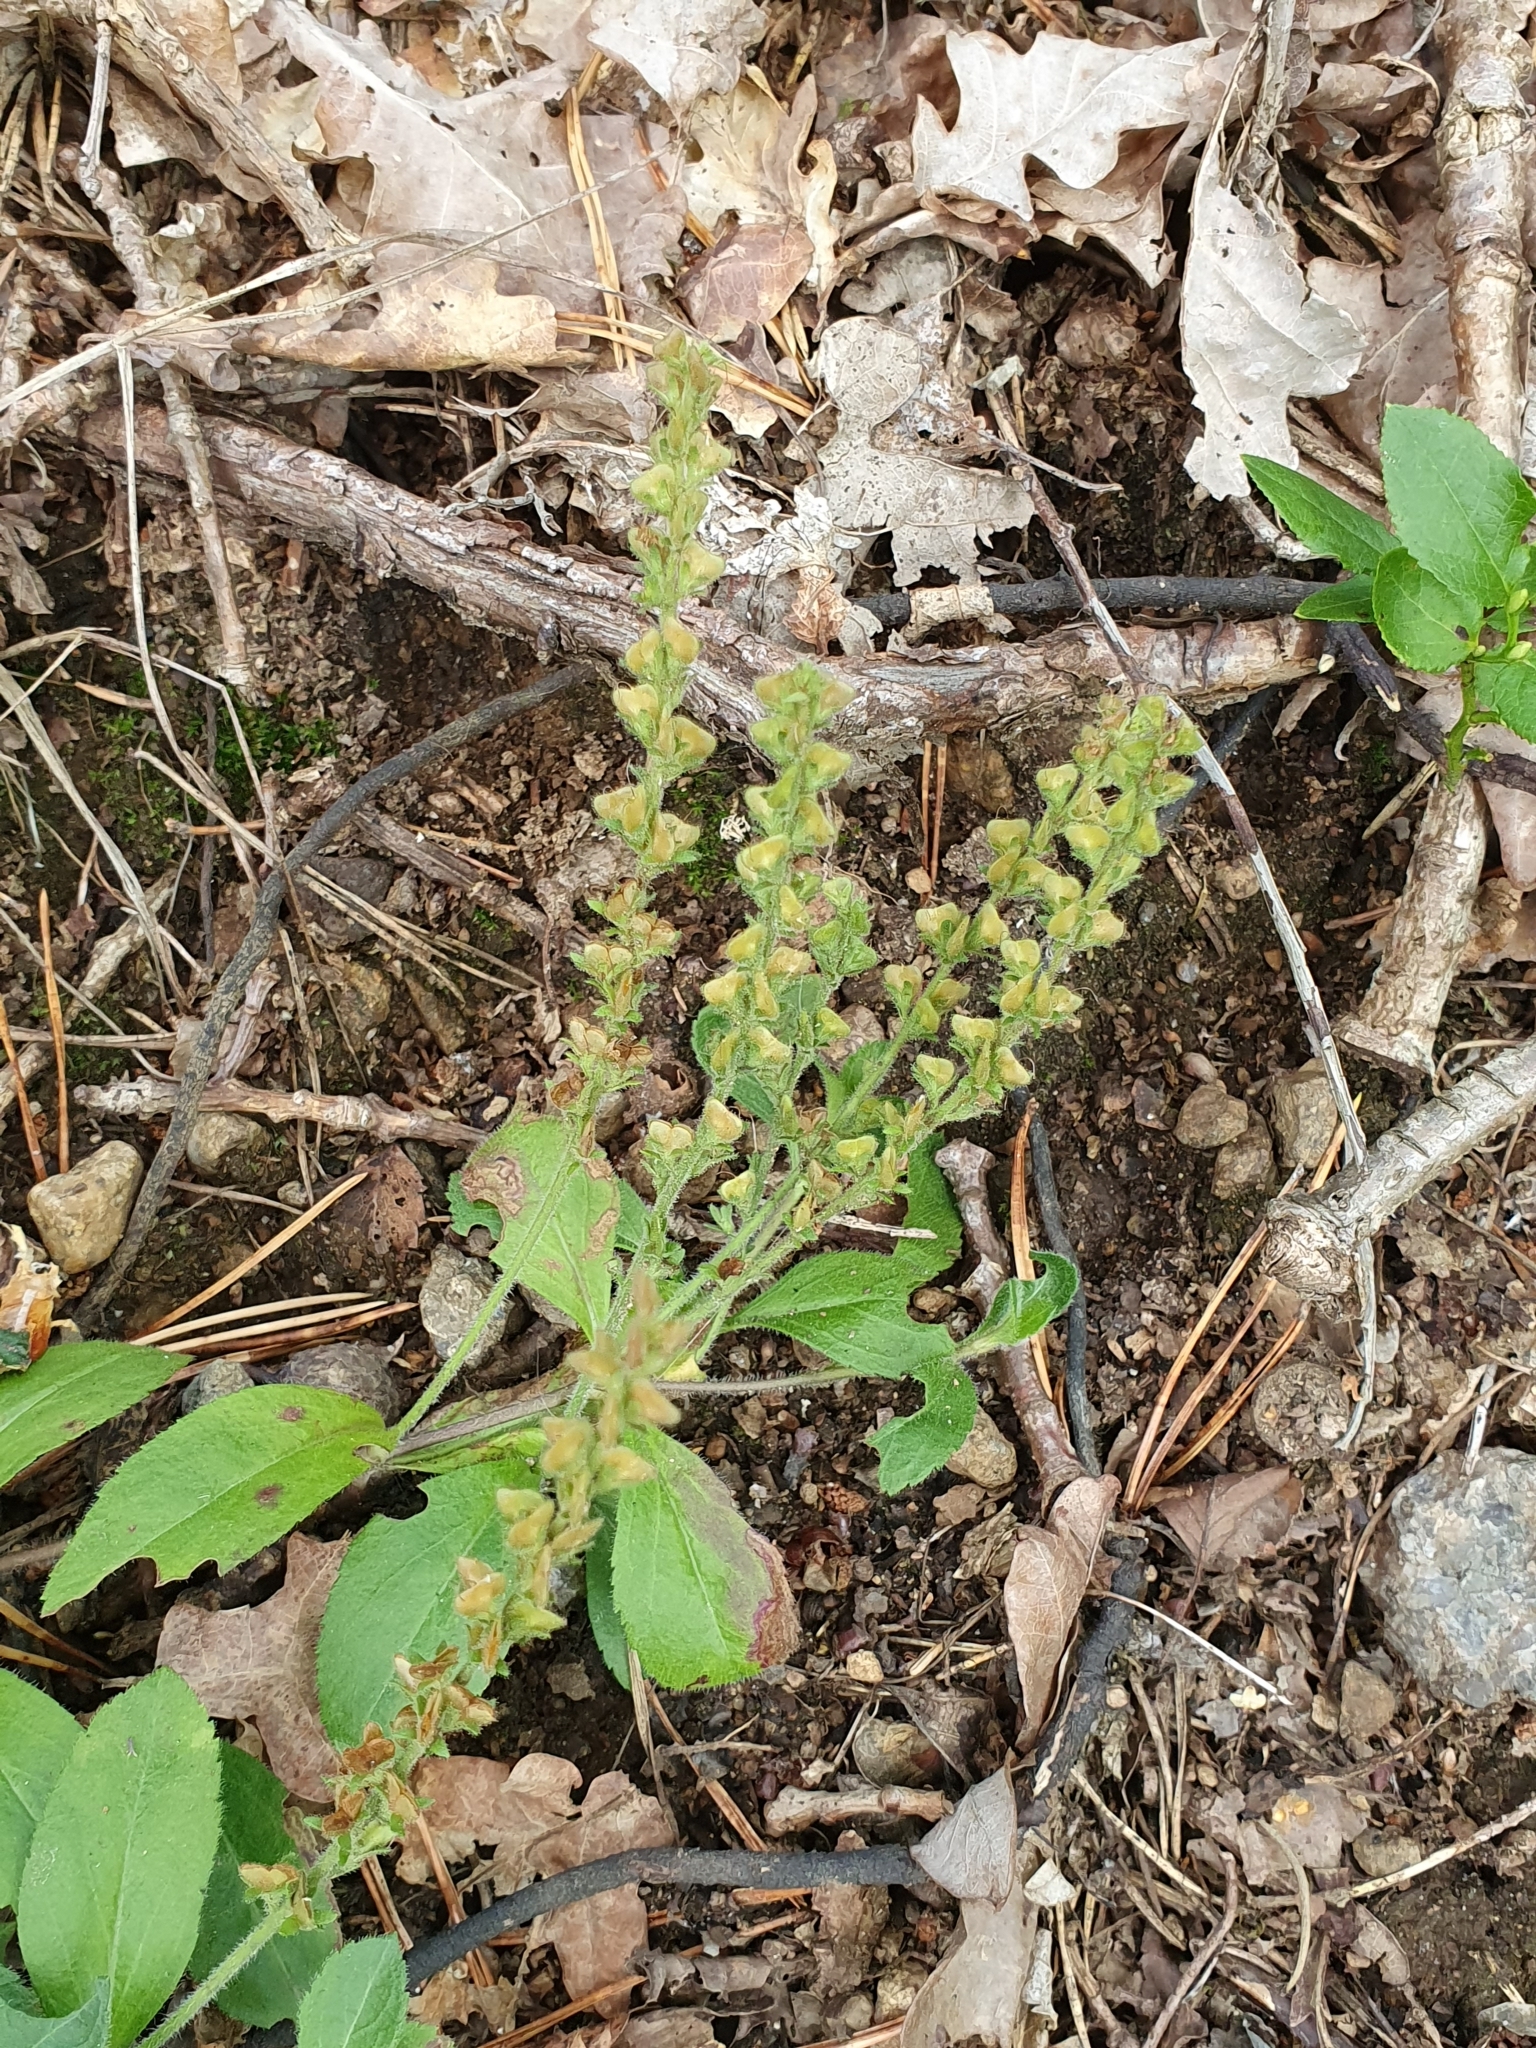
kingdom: Plantae
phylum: Tracheophyta
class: Magnoliopsida
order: Lamiales
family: Plantaginaceae
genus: Veronica
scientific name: Veronica officinalis
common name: Common speedwell
